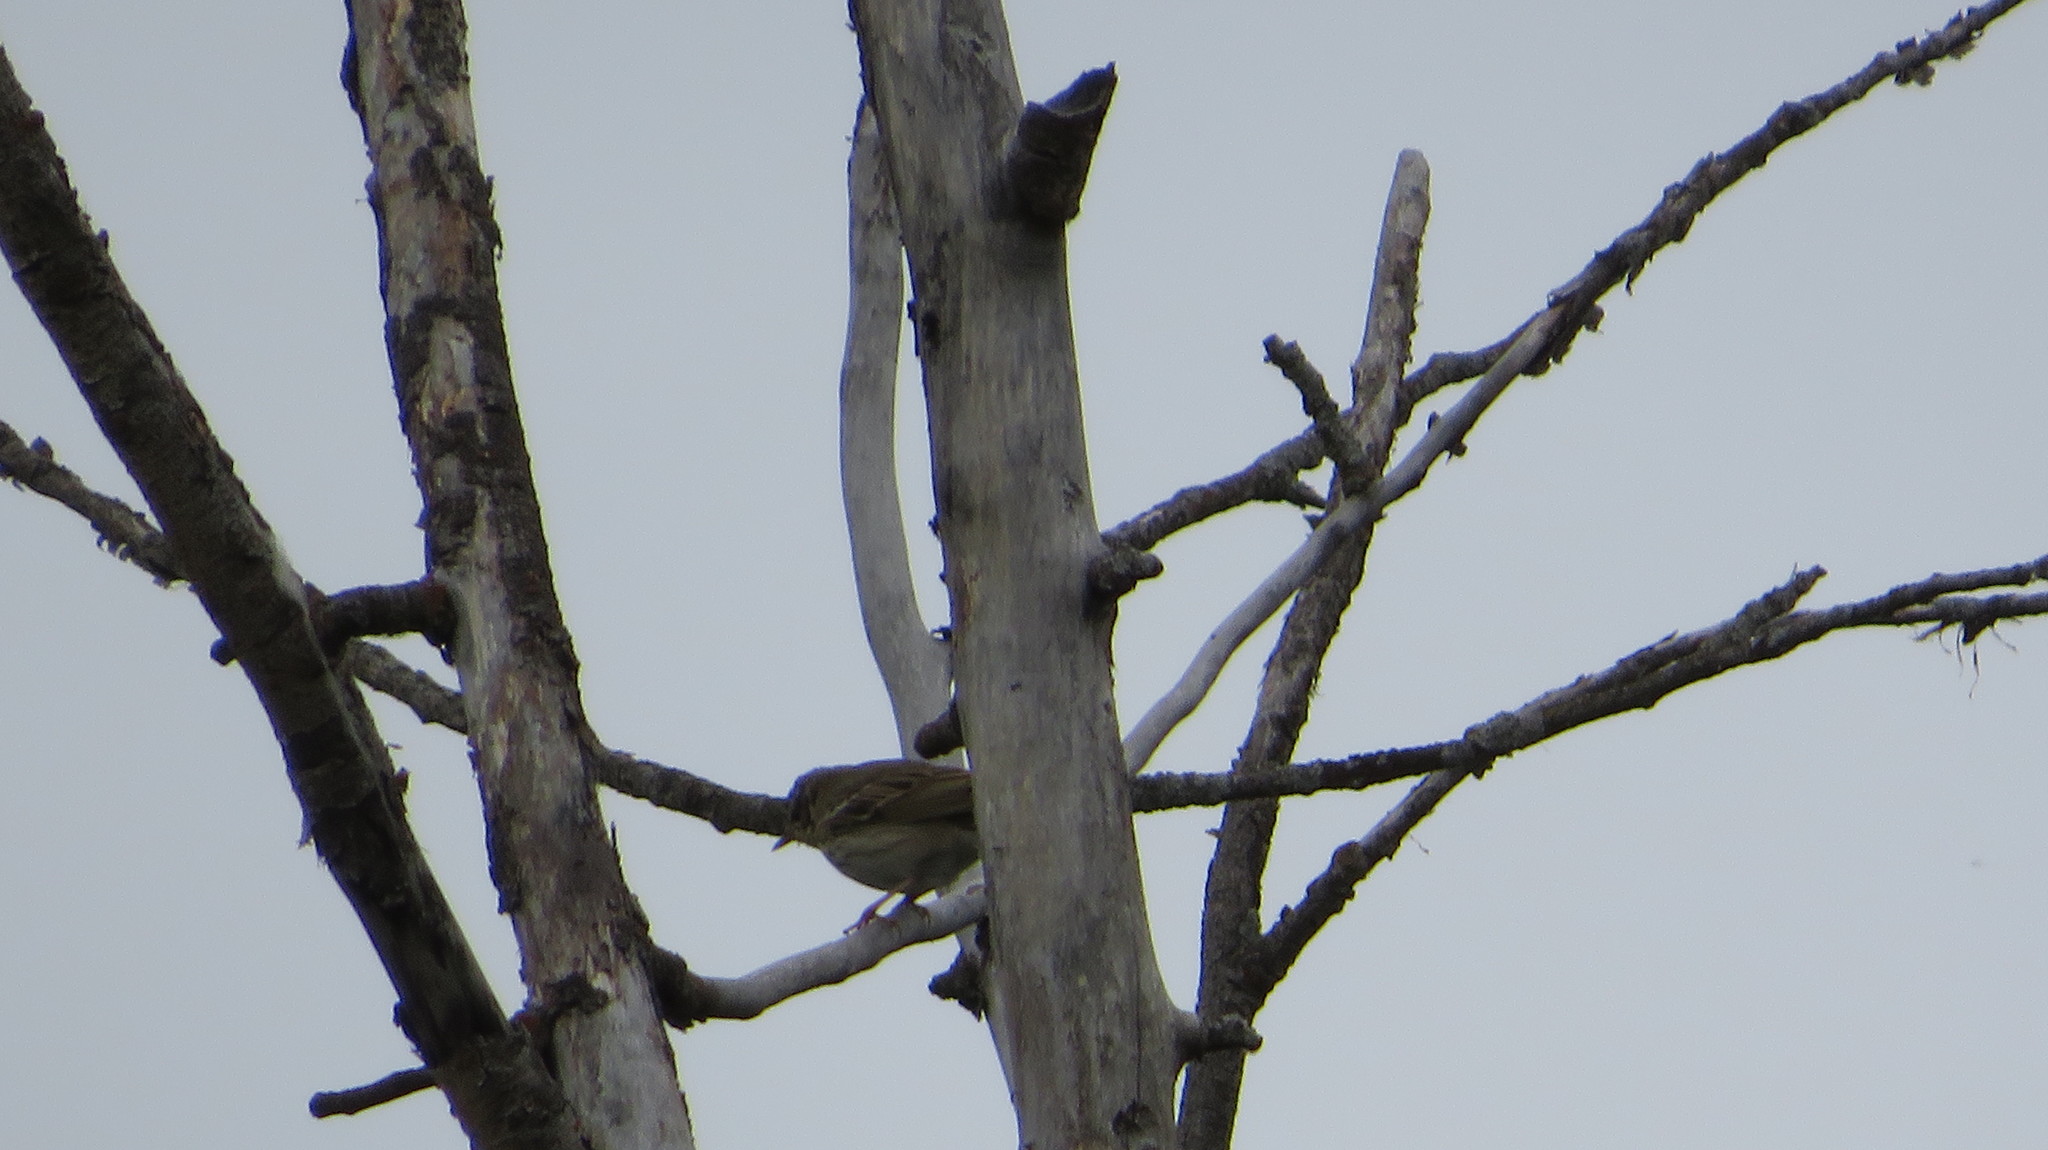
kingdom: Animalia
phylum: Chordata
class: Aves
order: Passeriformes
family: Motacillidae
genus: Anthus
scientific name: Anthus hodgsoni
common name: Olive-backed pipit
